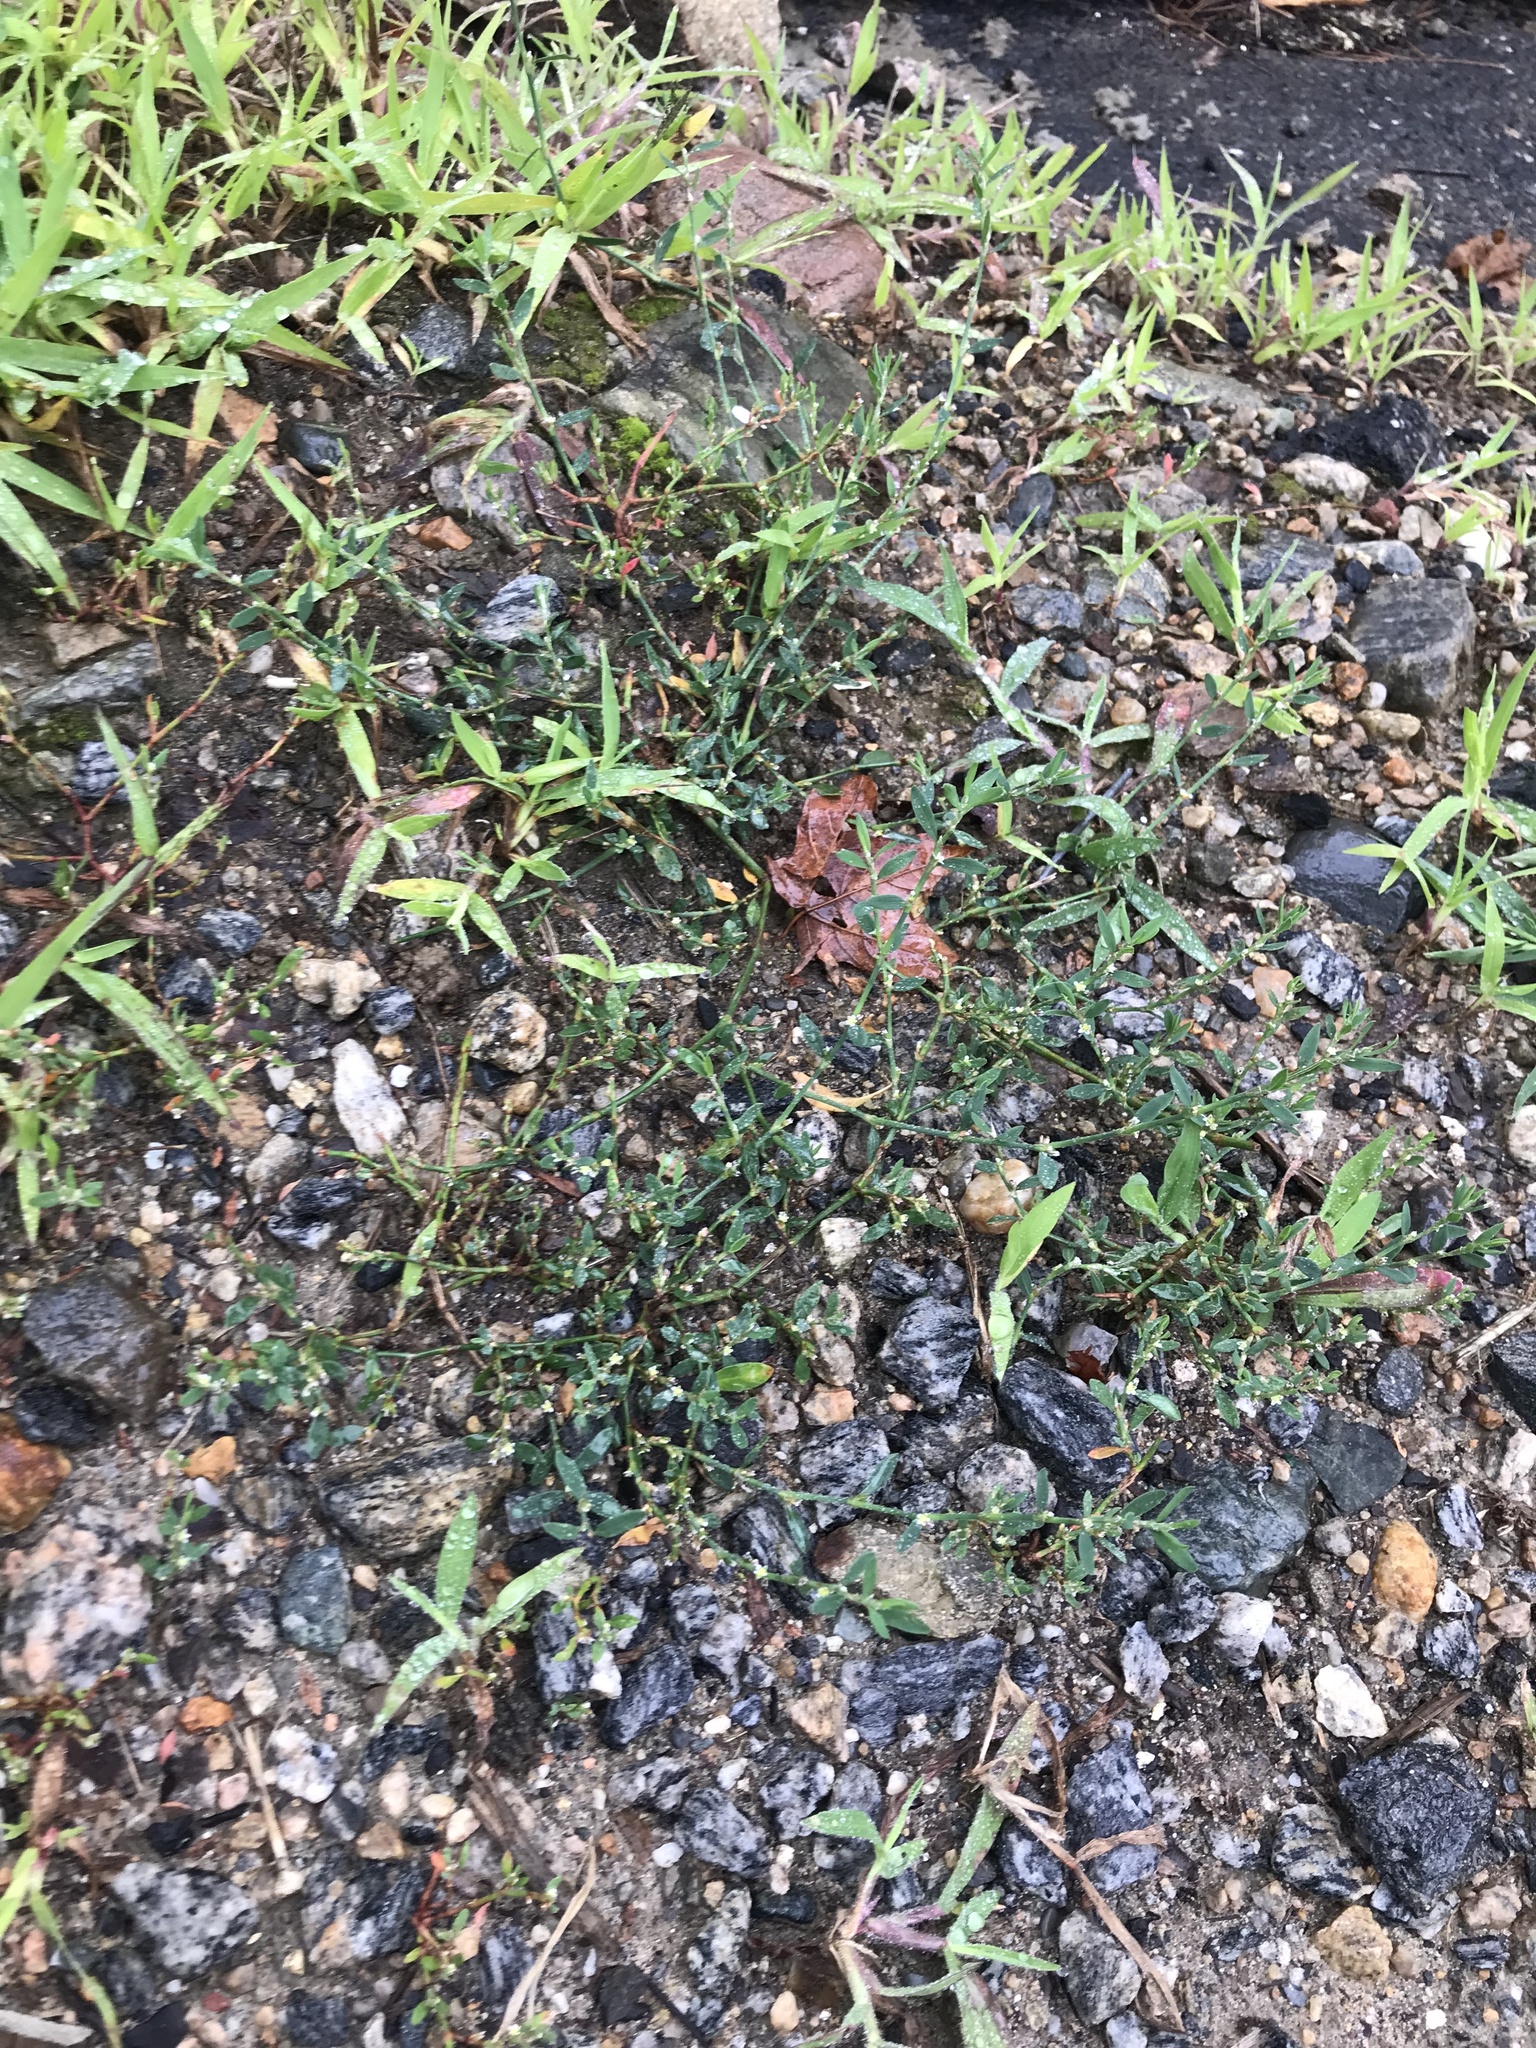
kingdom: Plantae
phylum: Tracheophyta
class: Magnoliopsida
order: Caryophyllales
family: Polygonaceae
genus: Polygonum
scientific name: Polygonum aviculare
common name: Prostrate knotweed
